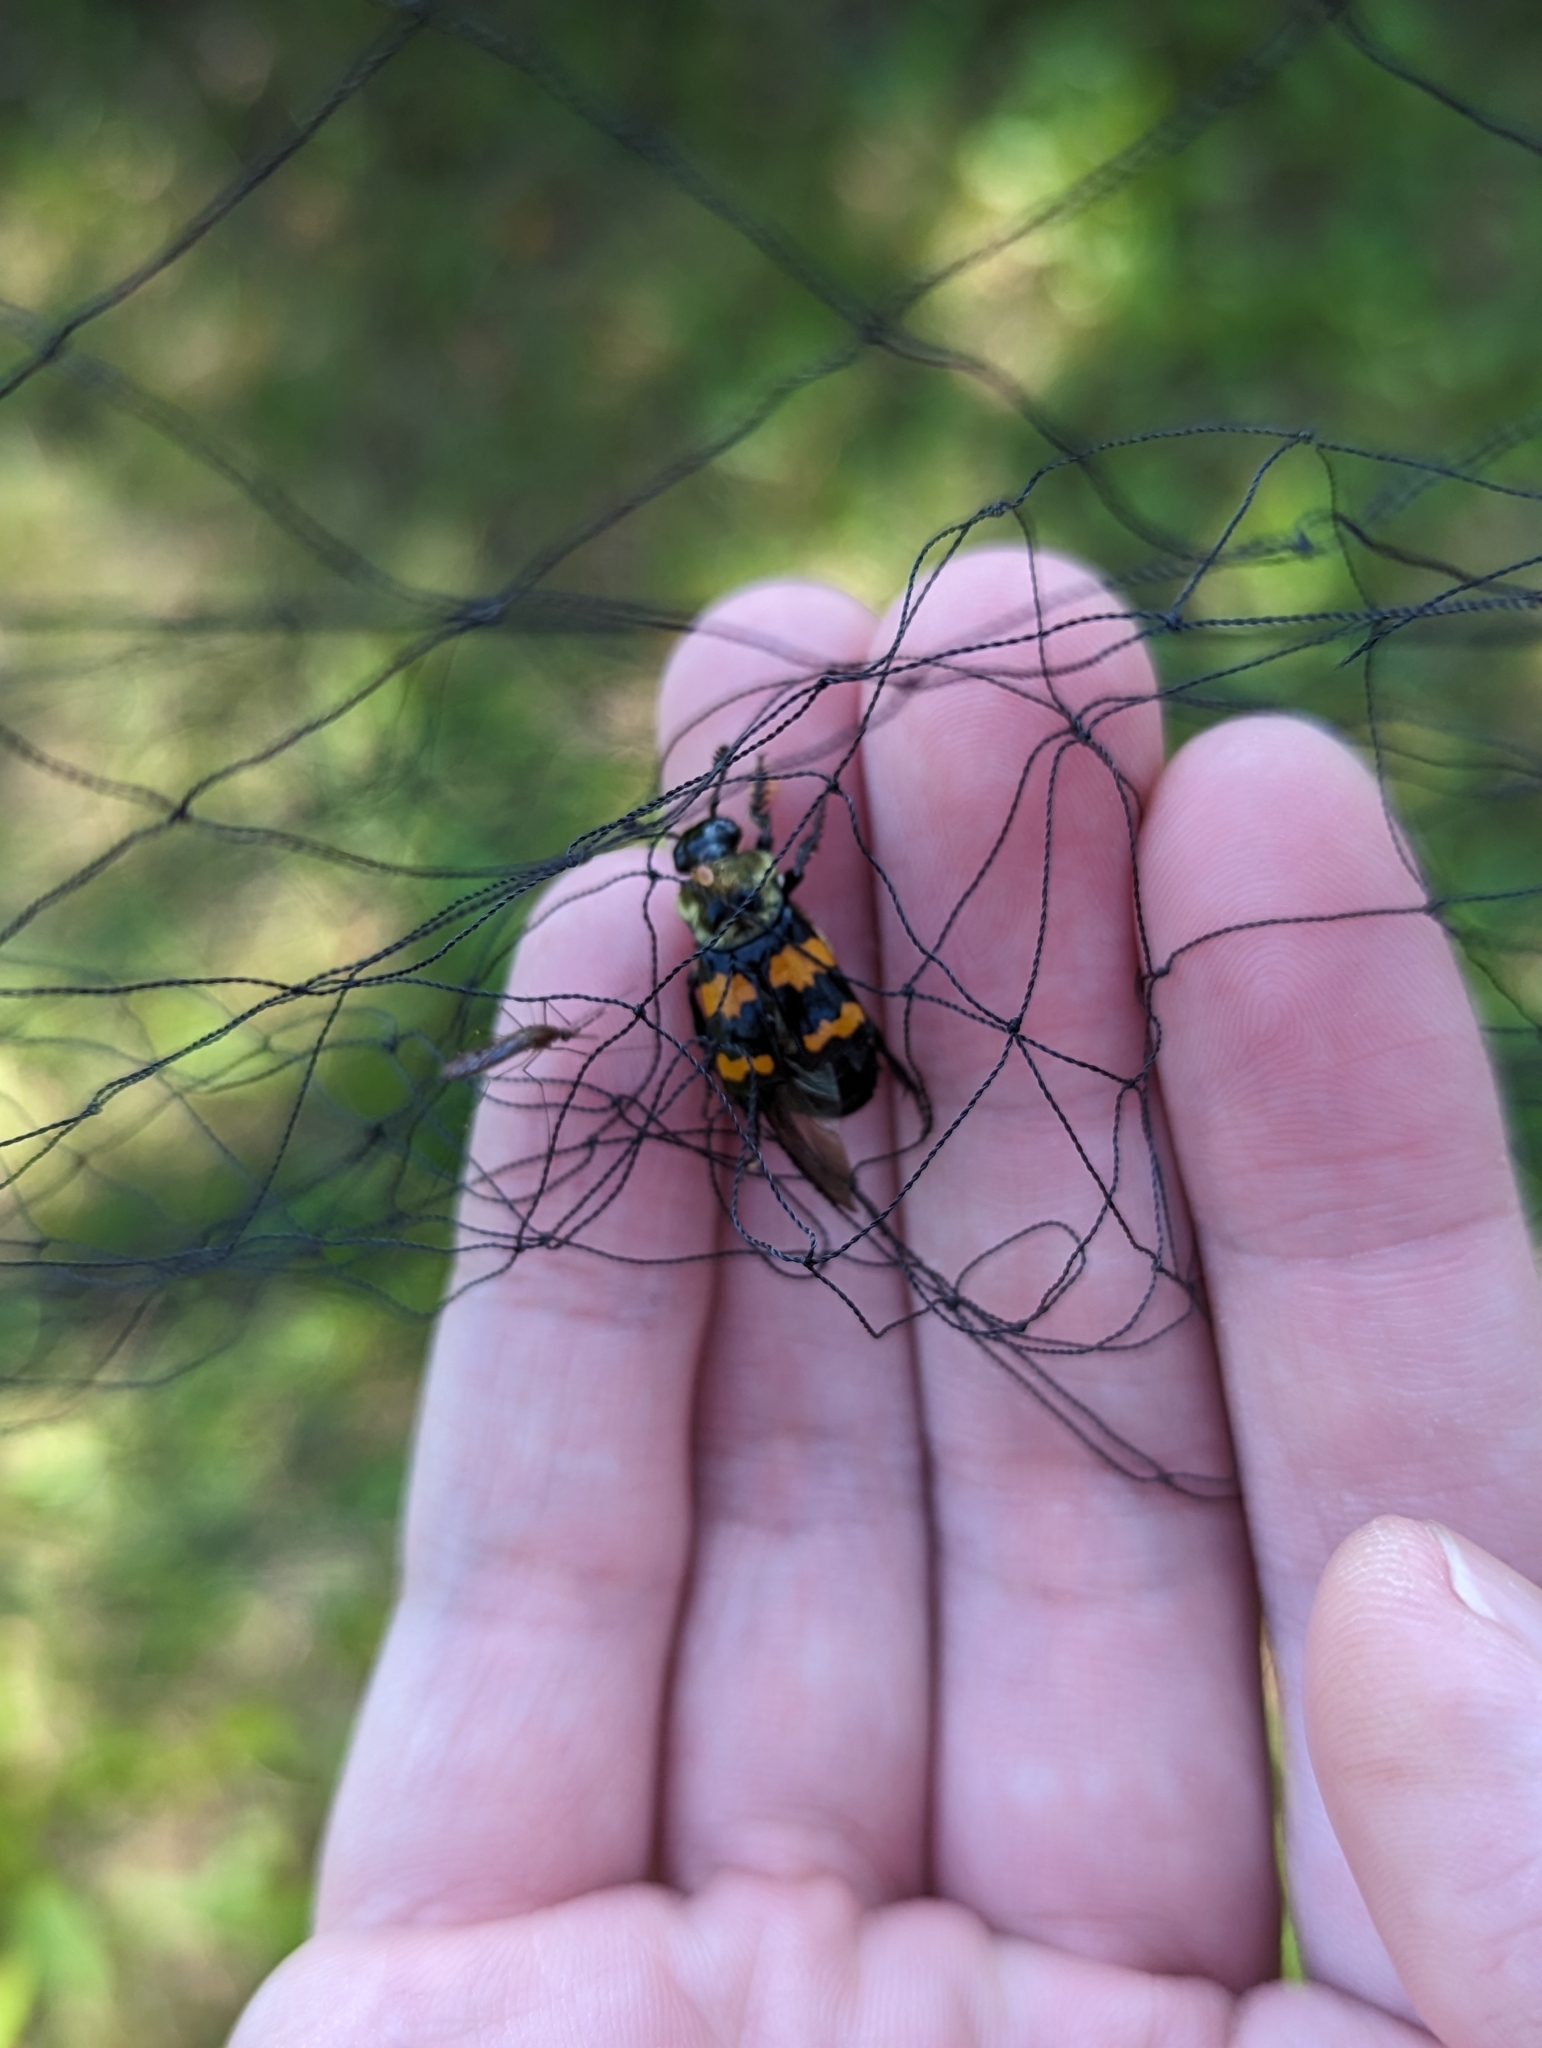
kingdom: Animalia
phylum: Arthropoda
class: Insecta
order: Coleoptera
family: Staphylinidae
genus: Nicrophorus
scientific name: Nicrophorus tomentosus
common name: Tomentose burying beetle
